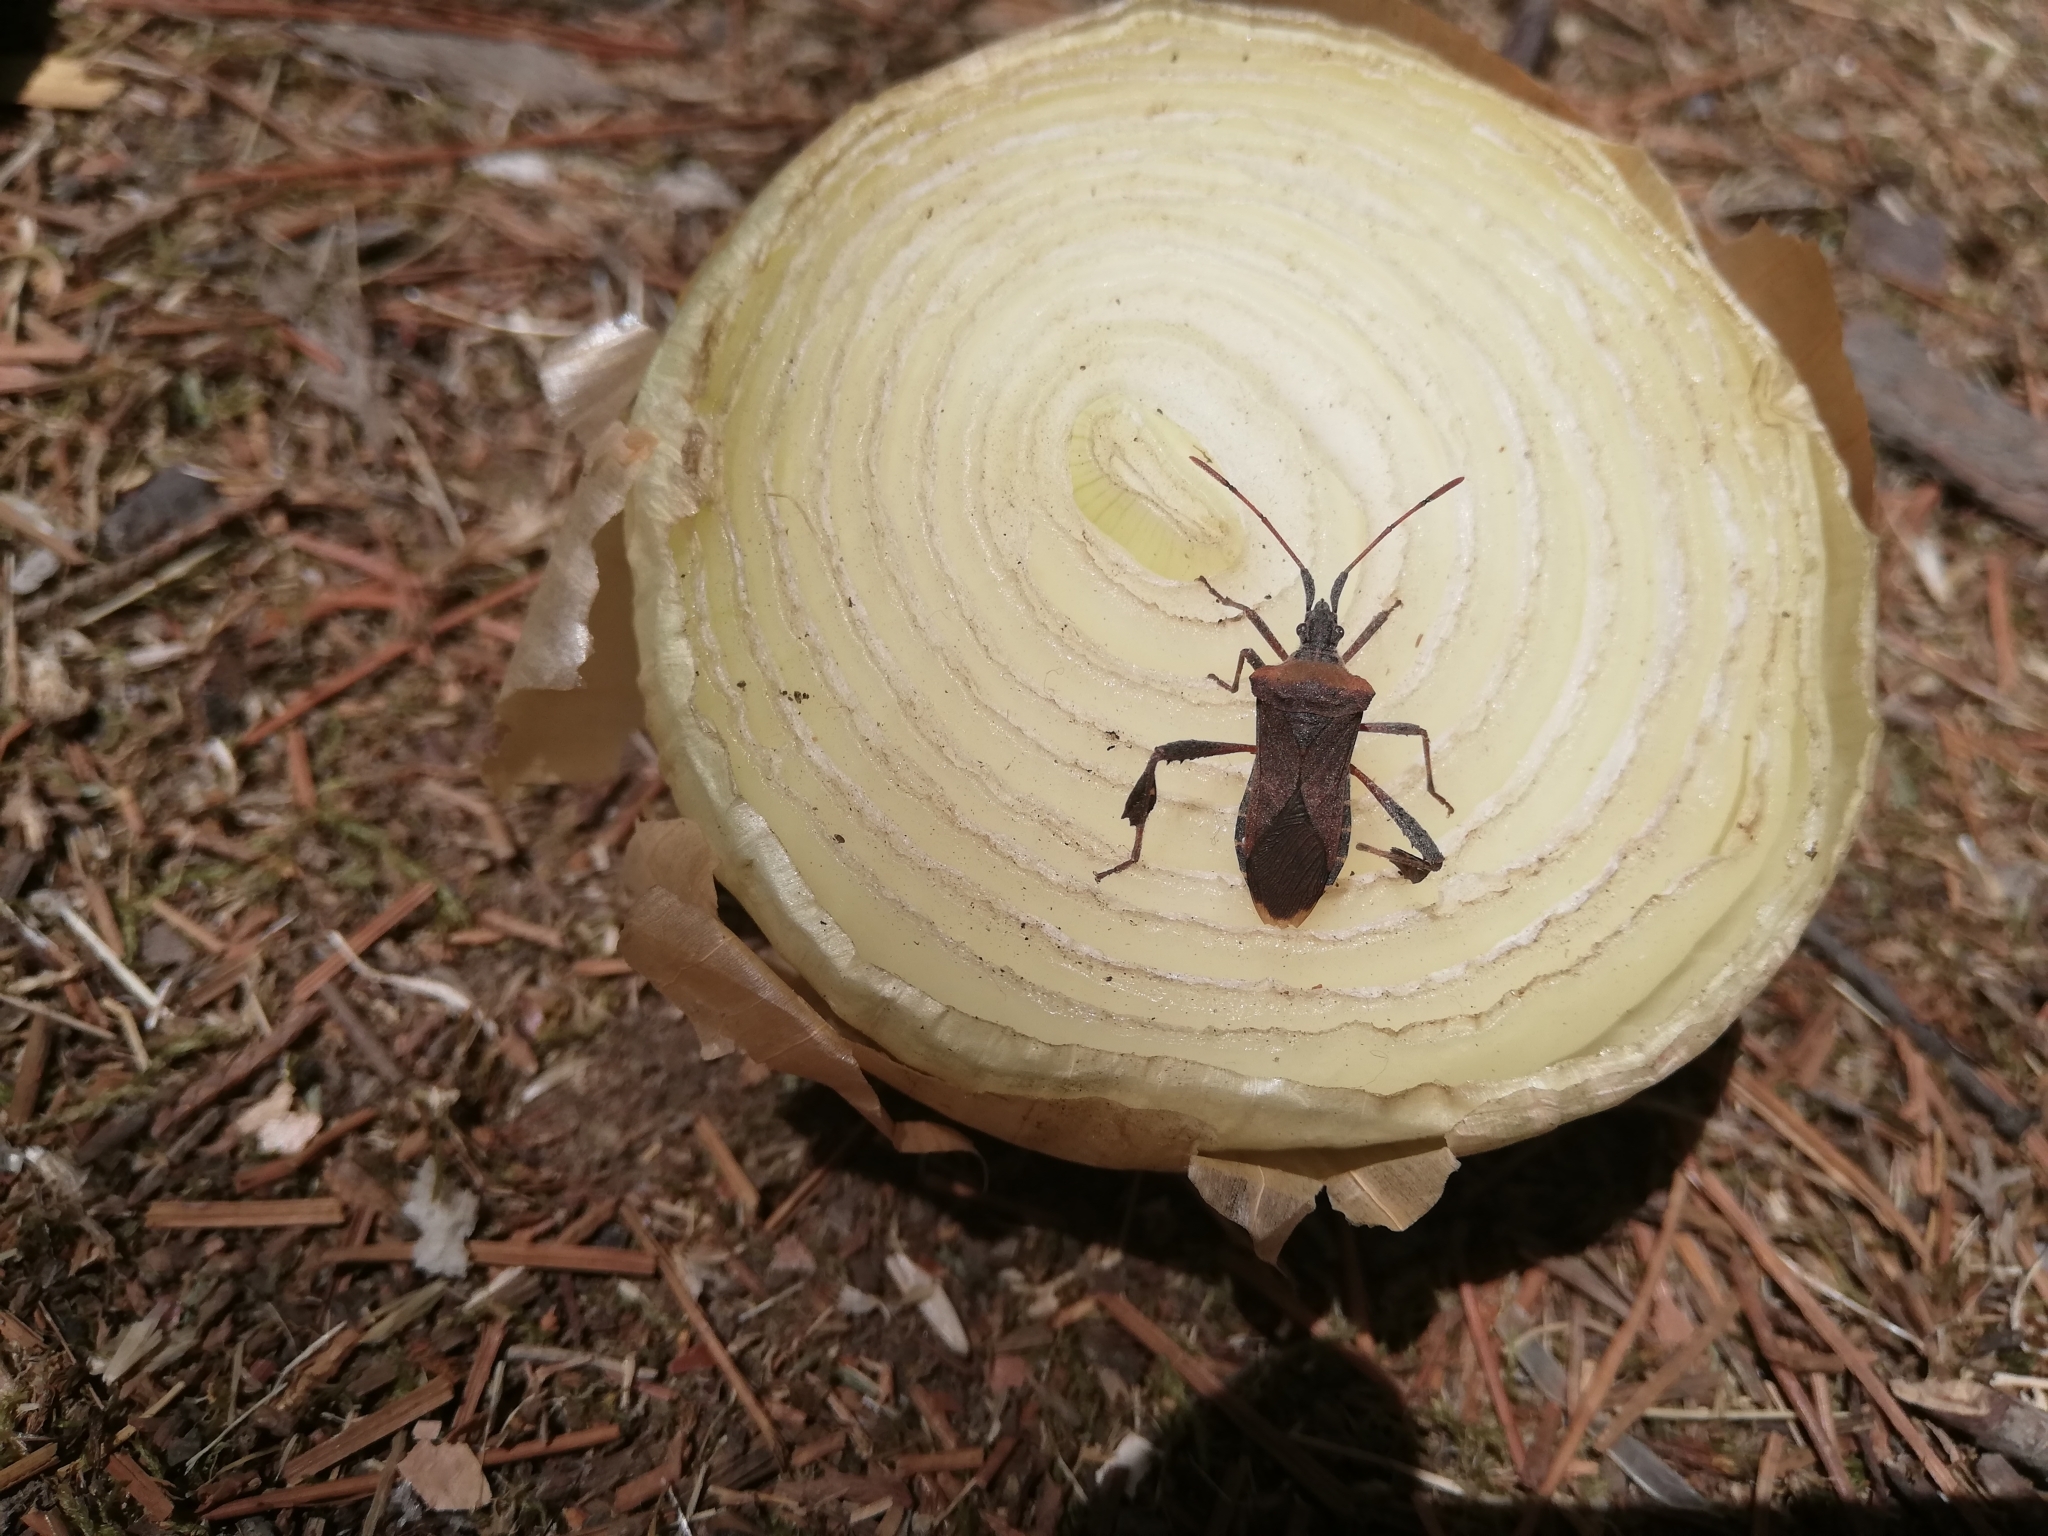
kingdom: Animalia
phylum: Arthropoda
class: Insecta
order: Hemiptera
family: Coreidae
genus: Leptoglossus
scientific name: Leptoglossus chilensis
